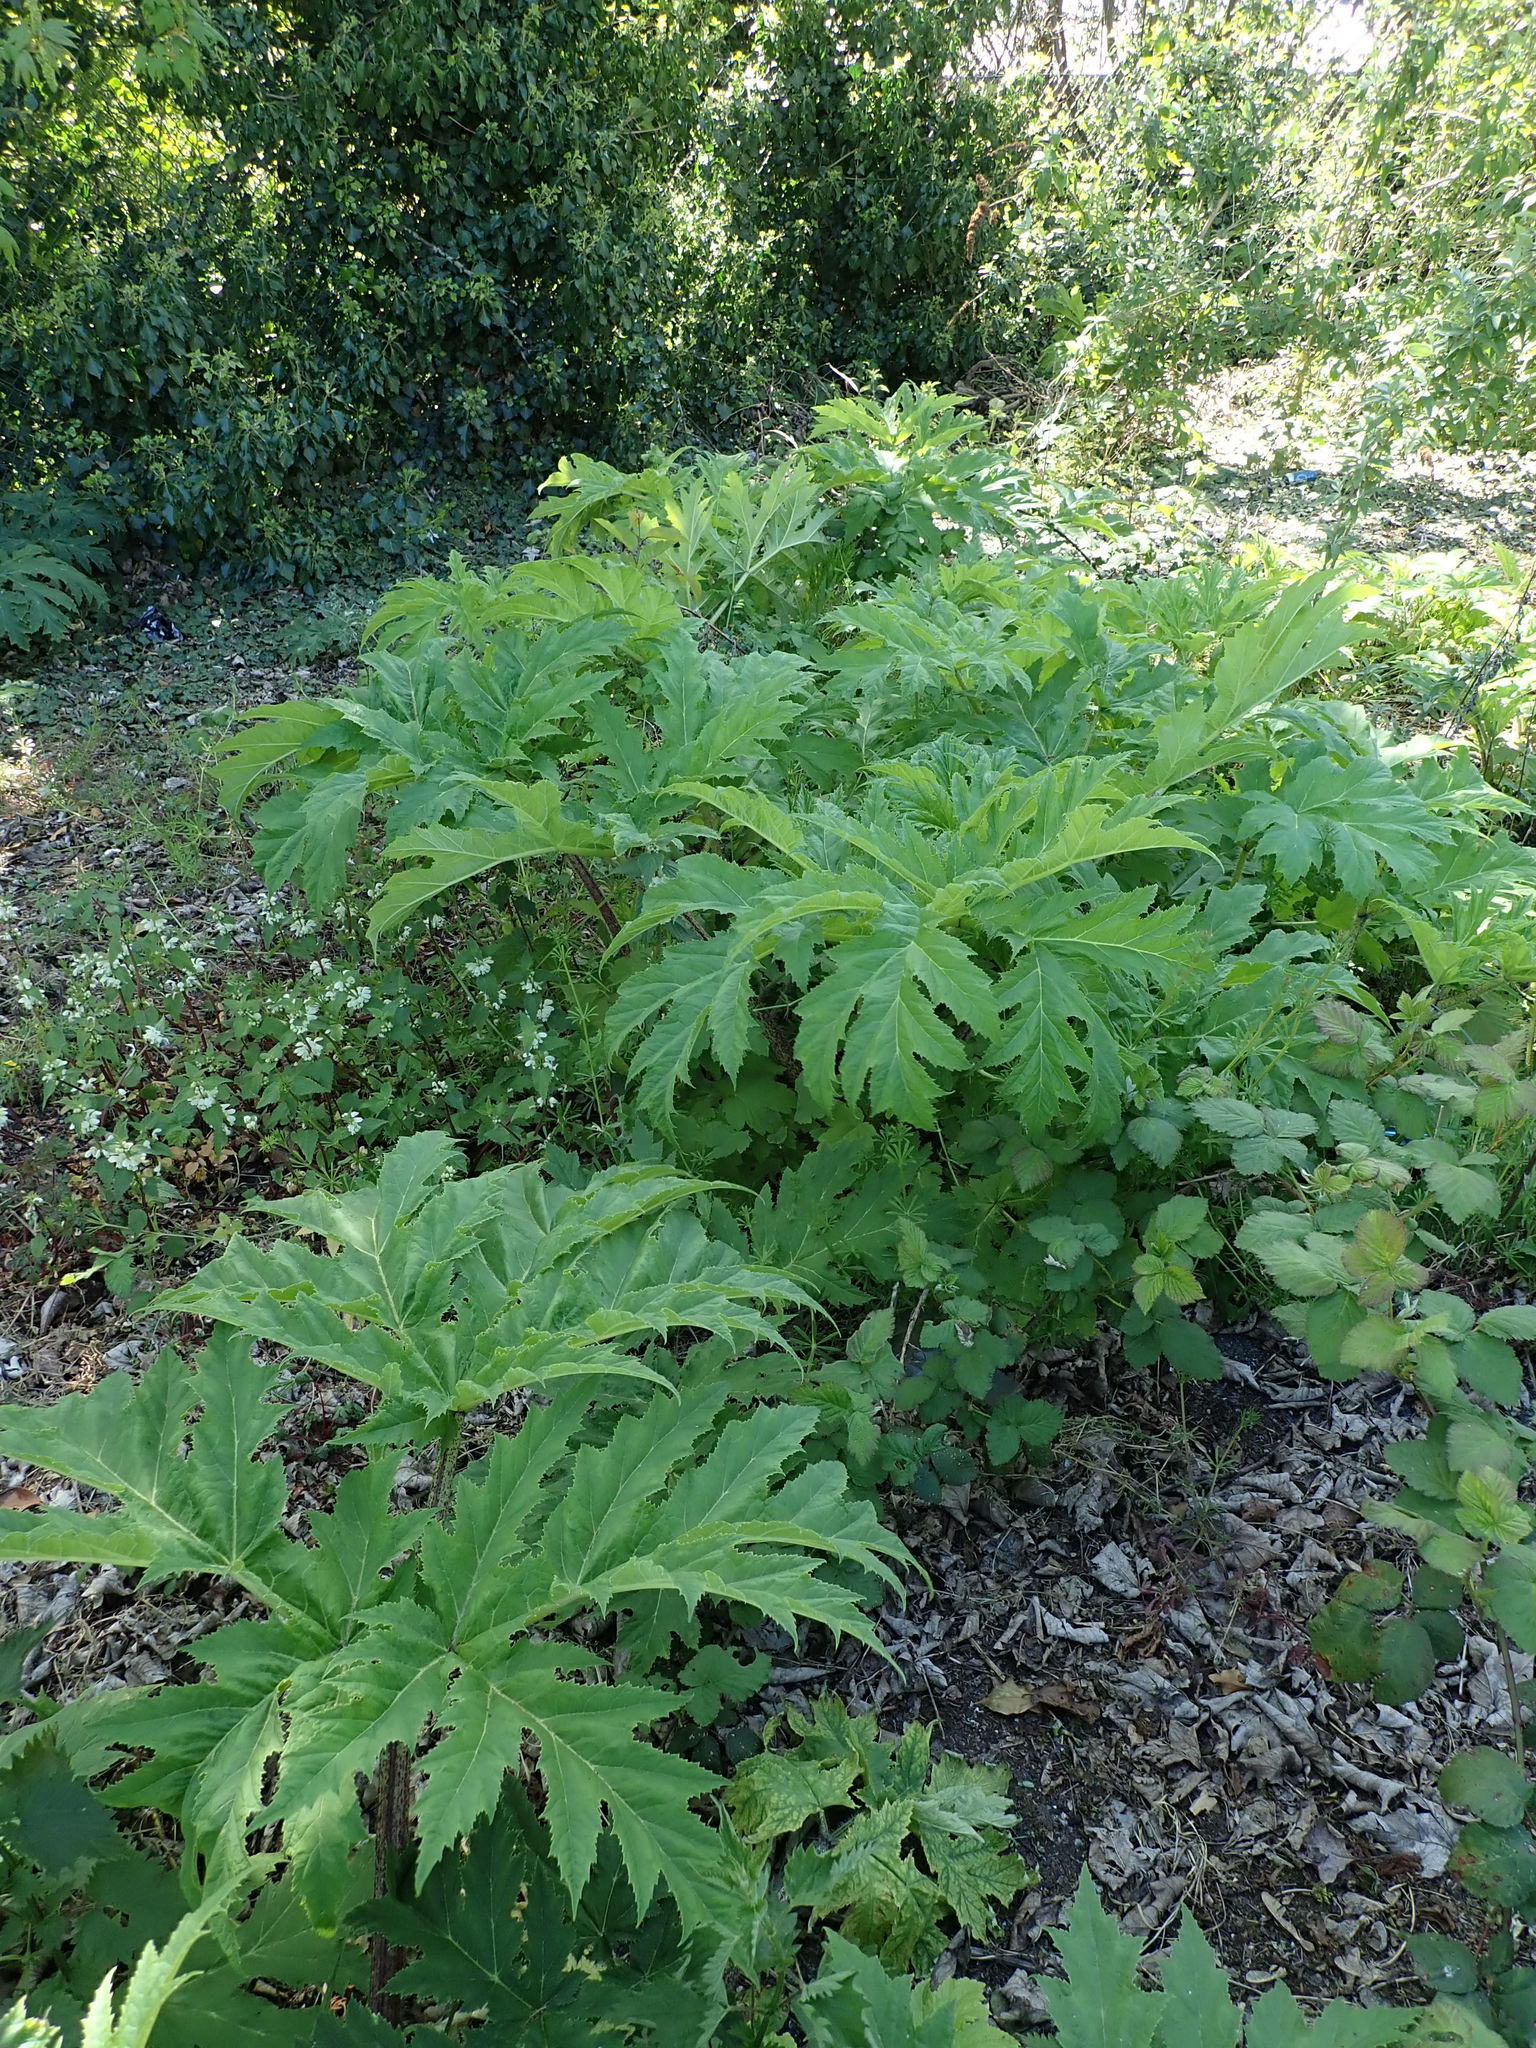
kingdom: Plantae
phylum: Tracheophyta
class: Magnoliopsida
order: Apiales
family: Apiaceae
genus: Heracleum
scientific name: Heracleum mantegazzianum
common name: Giant hogweed
